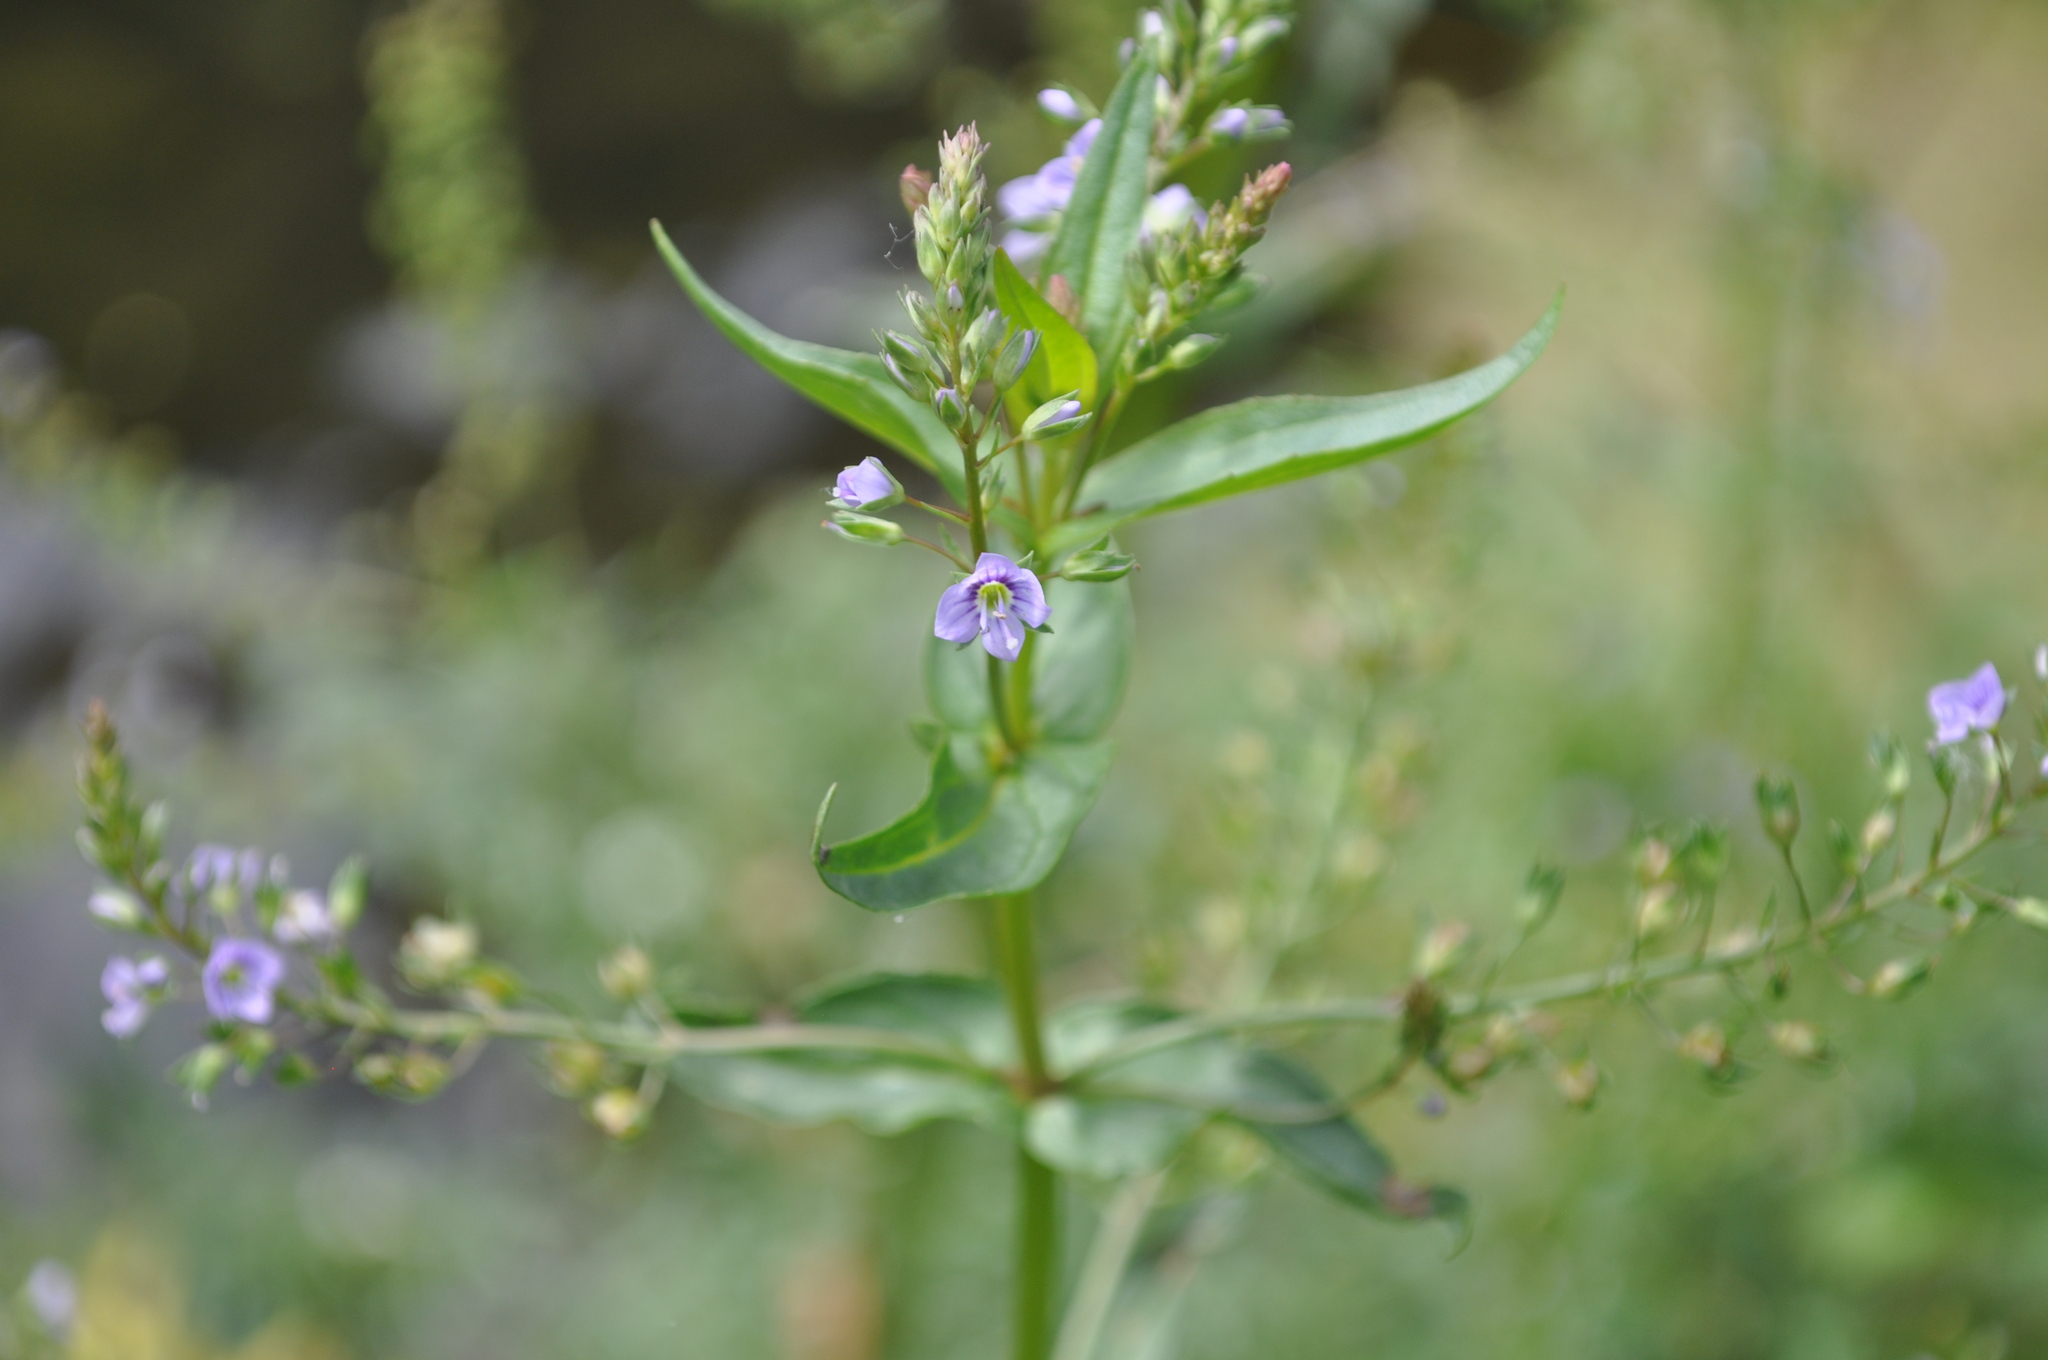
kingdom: Plantae
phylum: Tracheophyta
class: Magnoliopsida
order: Lamiales
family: Plantaginaceae
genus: Veronica
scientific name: Veronica anagallis-aquatica
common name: Water speedwell
